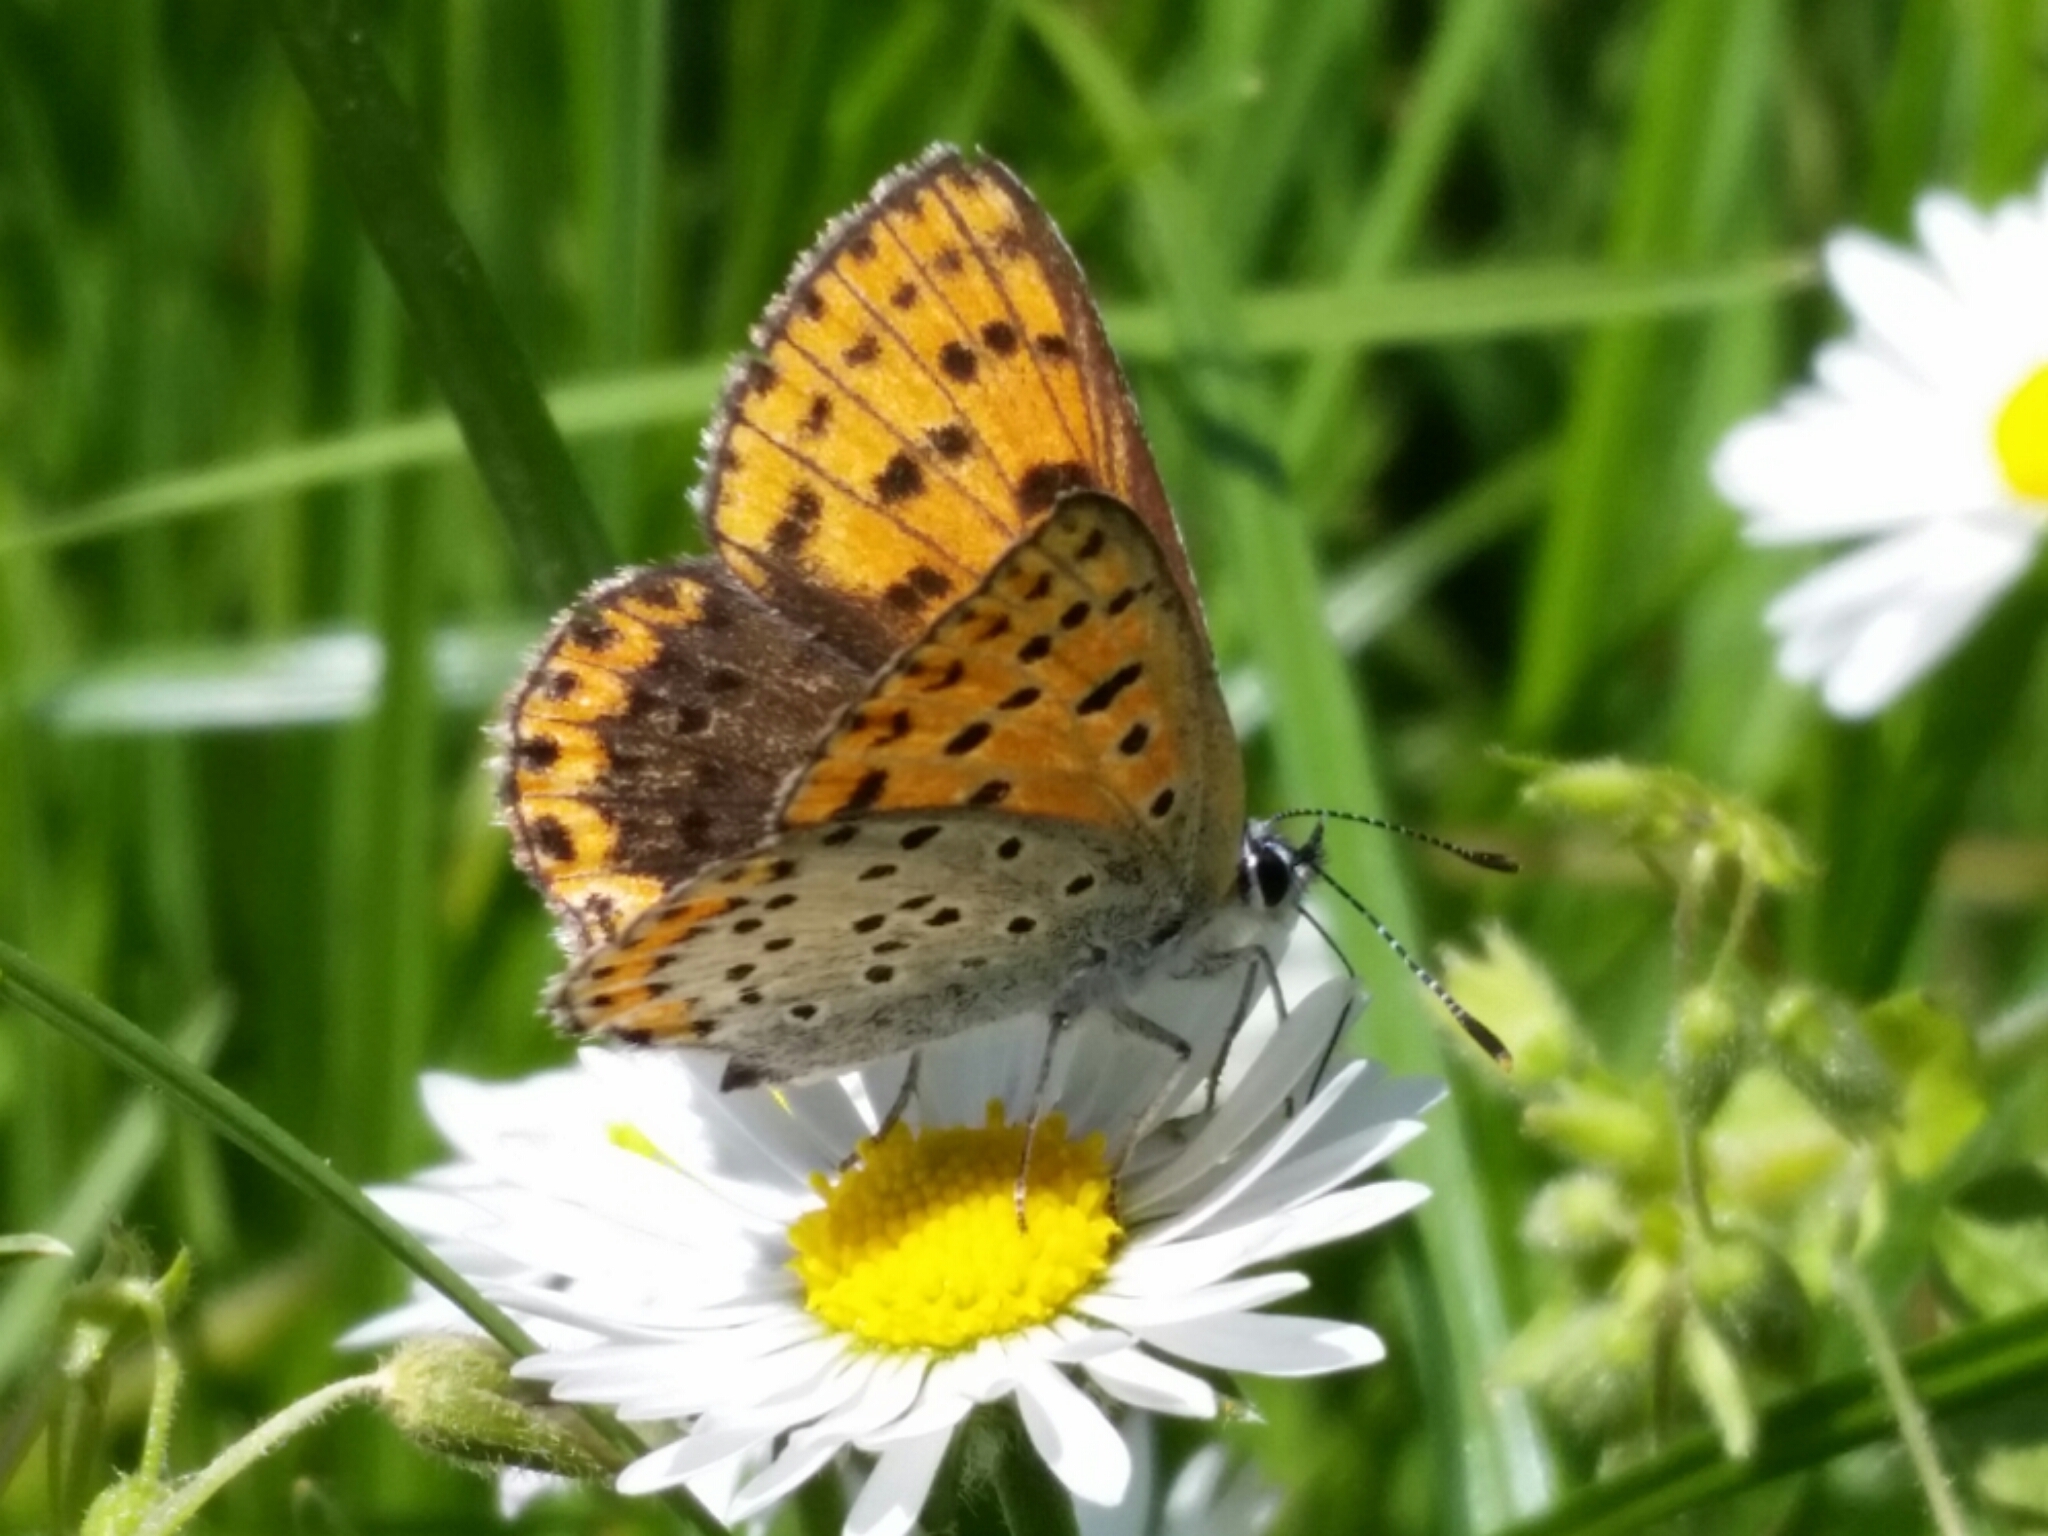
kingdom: Animalia
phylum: Arthropoda
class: Insecta
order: Lepidoptera
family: Lycaenidae
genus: Loweia
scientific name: Loweia tityrus
